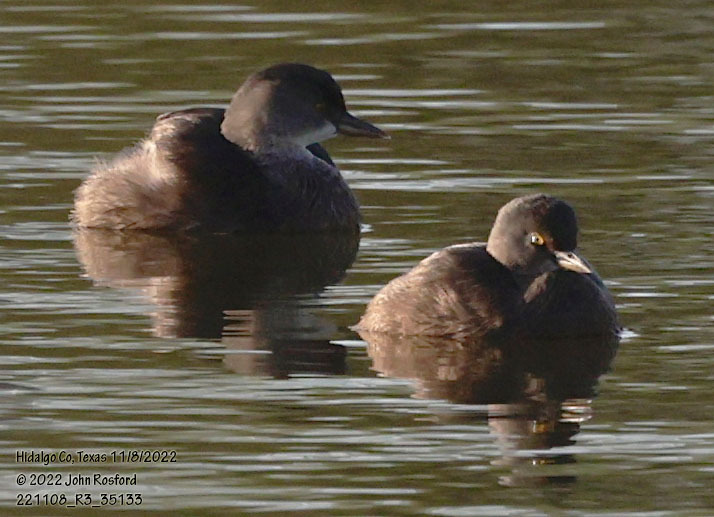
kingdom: Animalia
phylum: Chordata
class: Aves
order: Podicipediformes
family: Podicipedidae
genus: Tachybaptus
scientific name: Tachybaptus dominicus
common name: Least grebe
